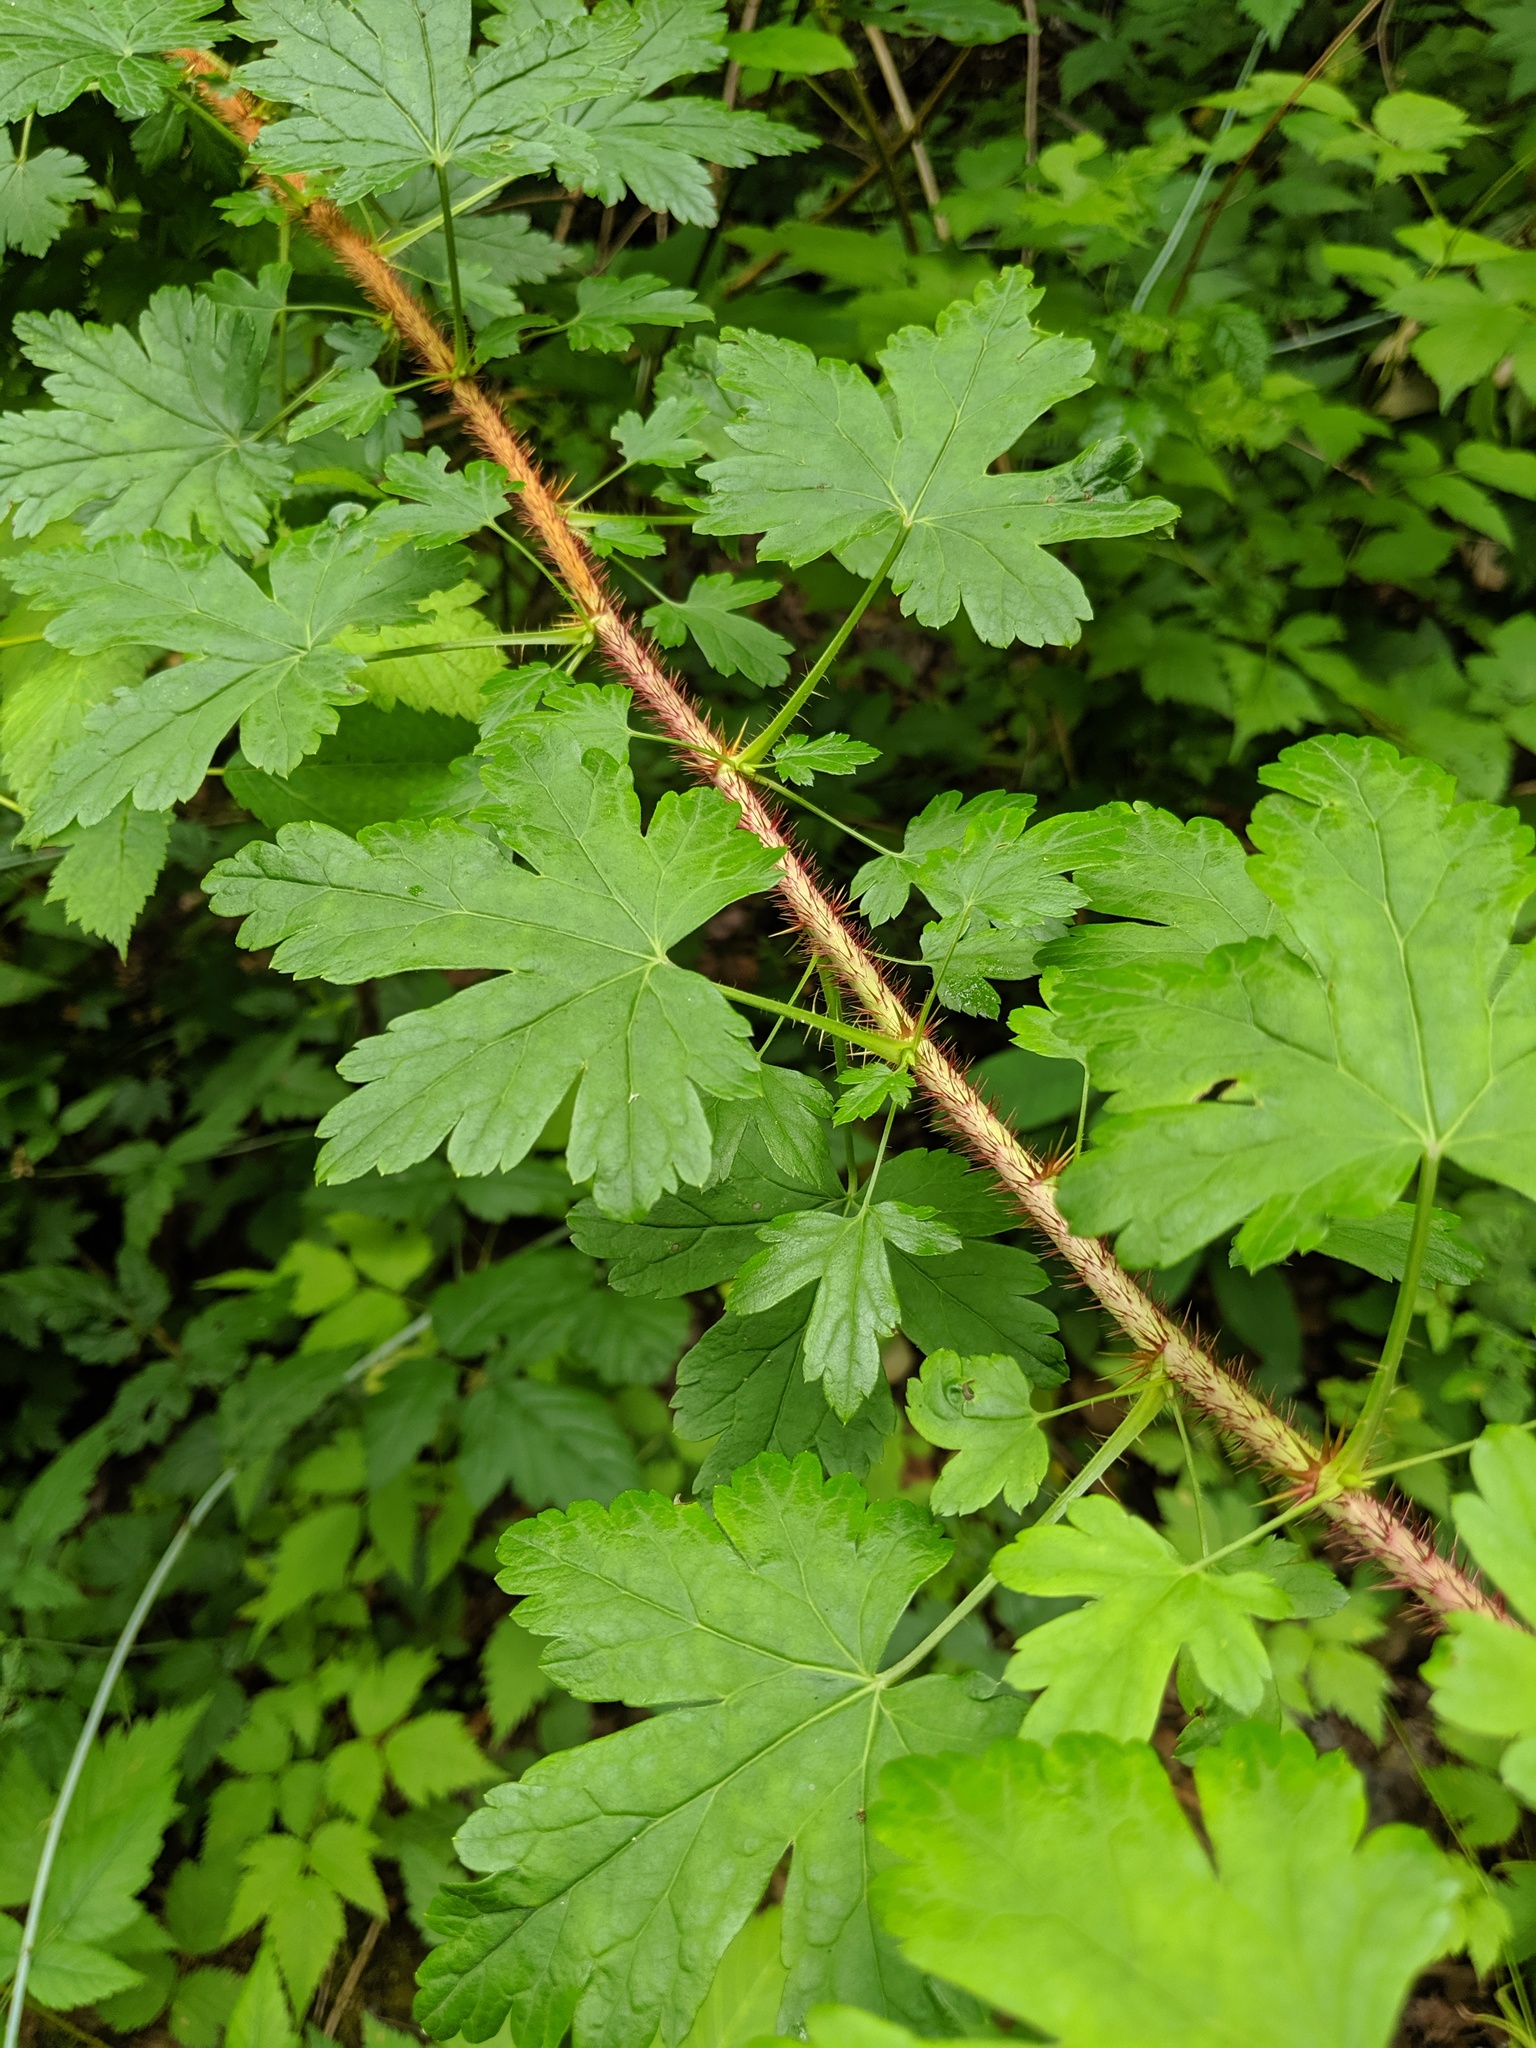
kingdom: Plantae
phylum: Tracheophyta
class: Magnoliopsida
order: Saxifragales
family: Grossulariaceae
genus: Ribes
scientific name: Ribes lacustre
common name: Black gooseberry
